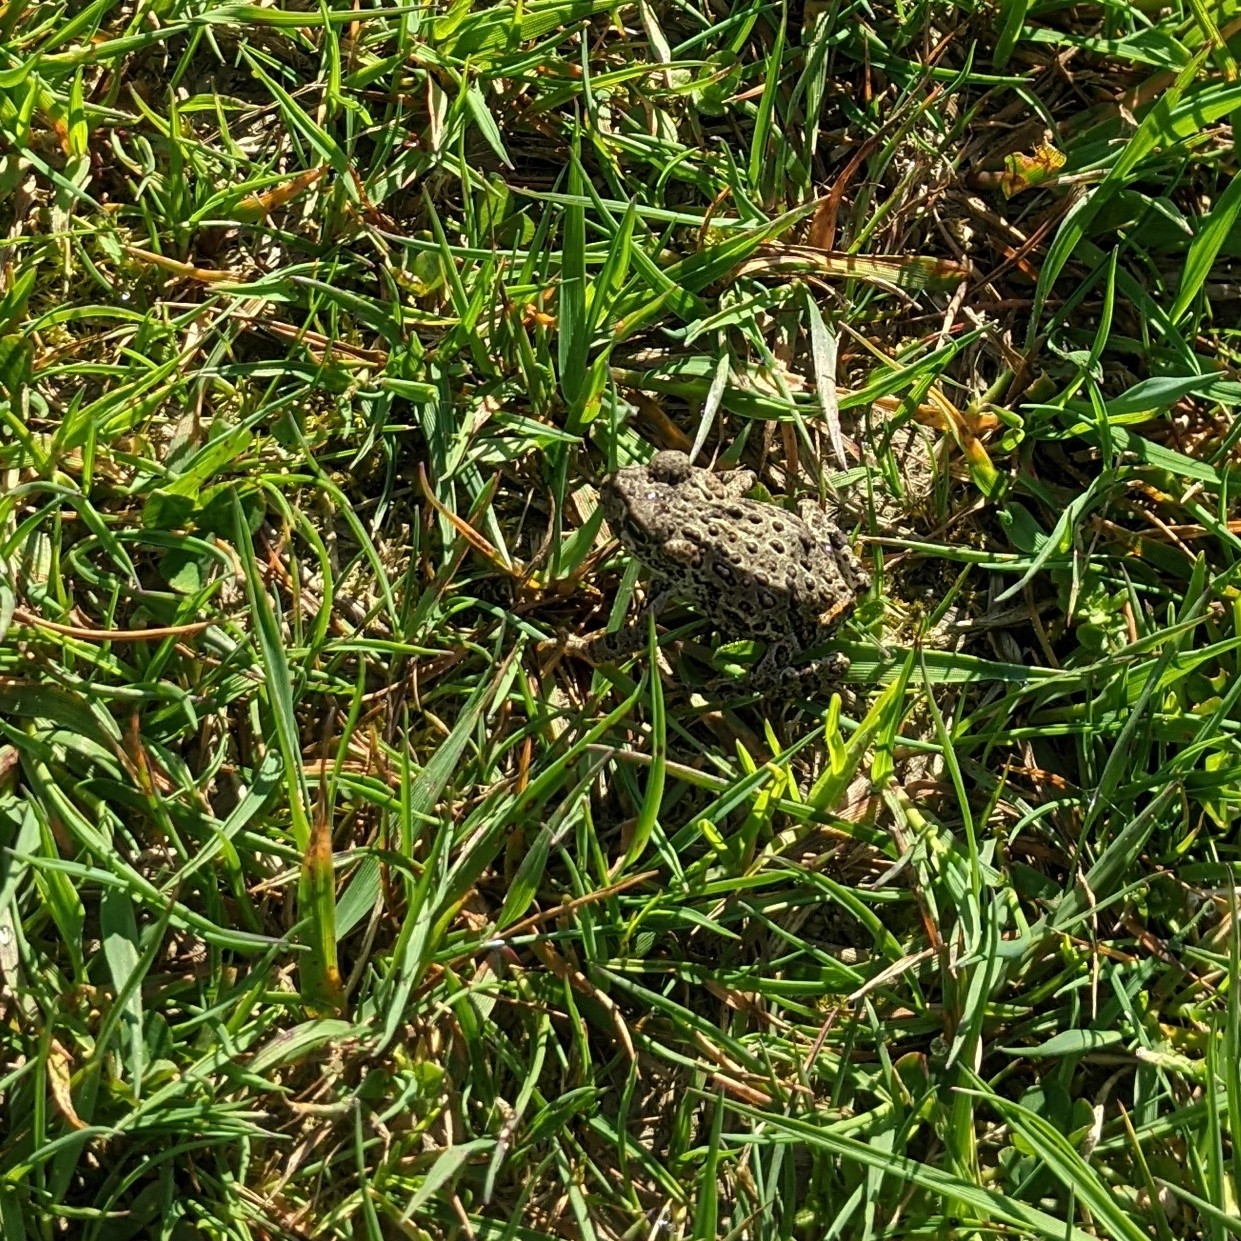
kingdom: Animalia
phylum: Chordata
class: Amphibia
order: Anura
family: Bufonidae
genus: Anaxyrus
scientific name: Anaxyrus boreas
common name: Western toad
